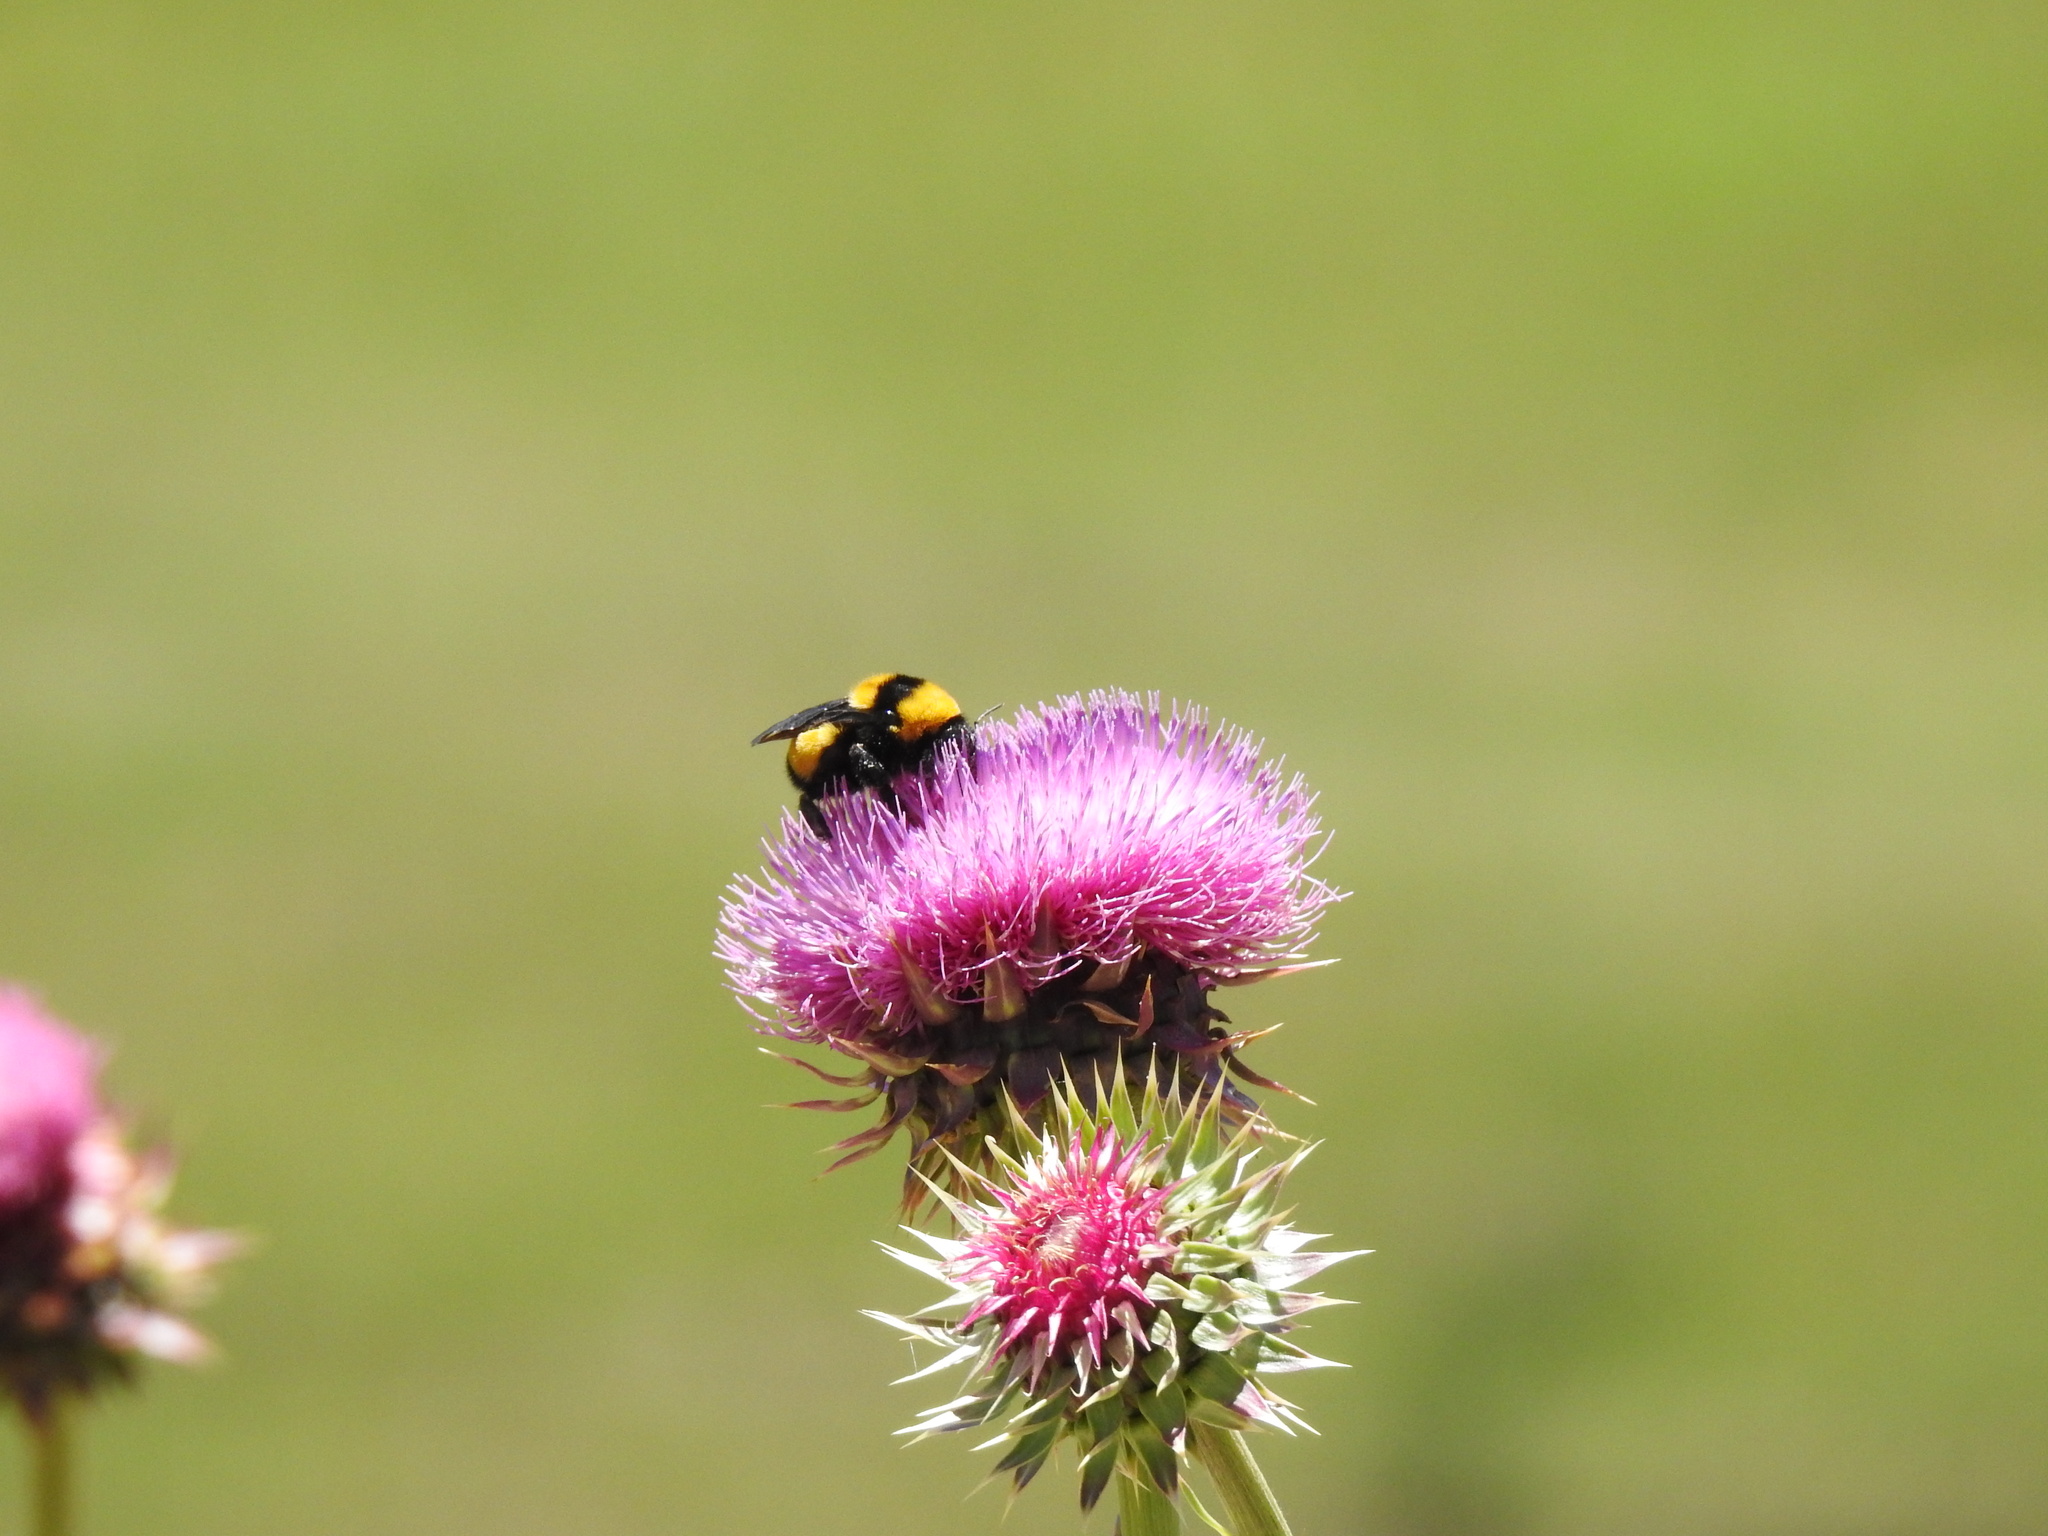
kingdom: Animalia
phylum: Arthropoda
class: Insecta
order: Hymenoptera
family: Apidae
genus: Bombus
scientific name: Bombus sonorus
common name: Sonoran bumble bee
